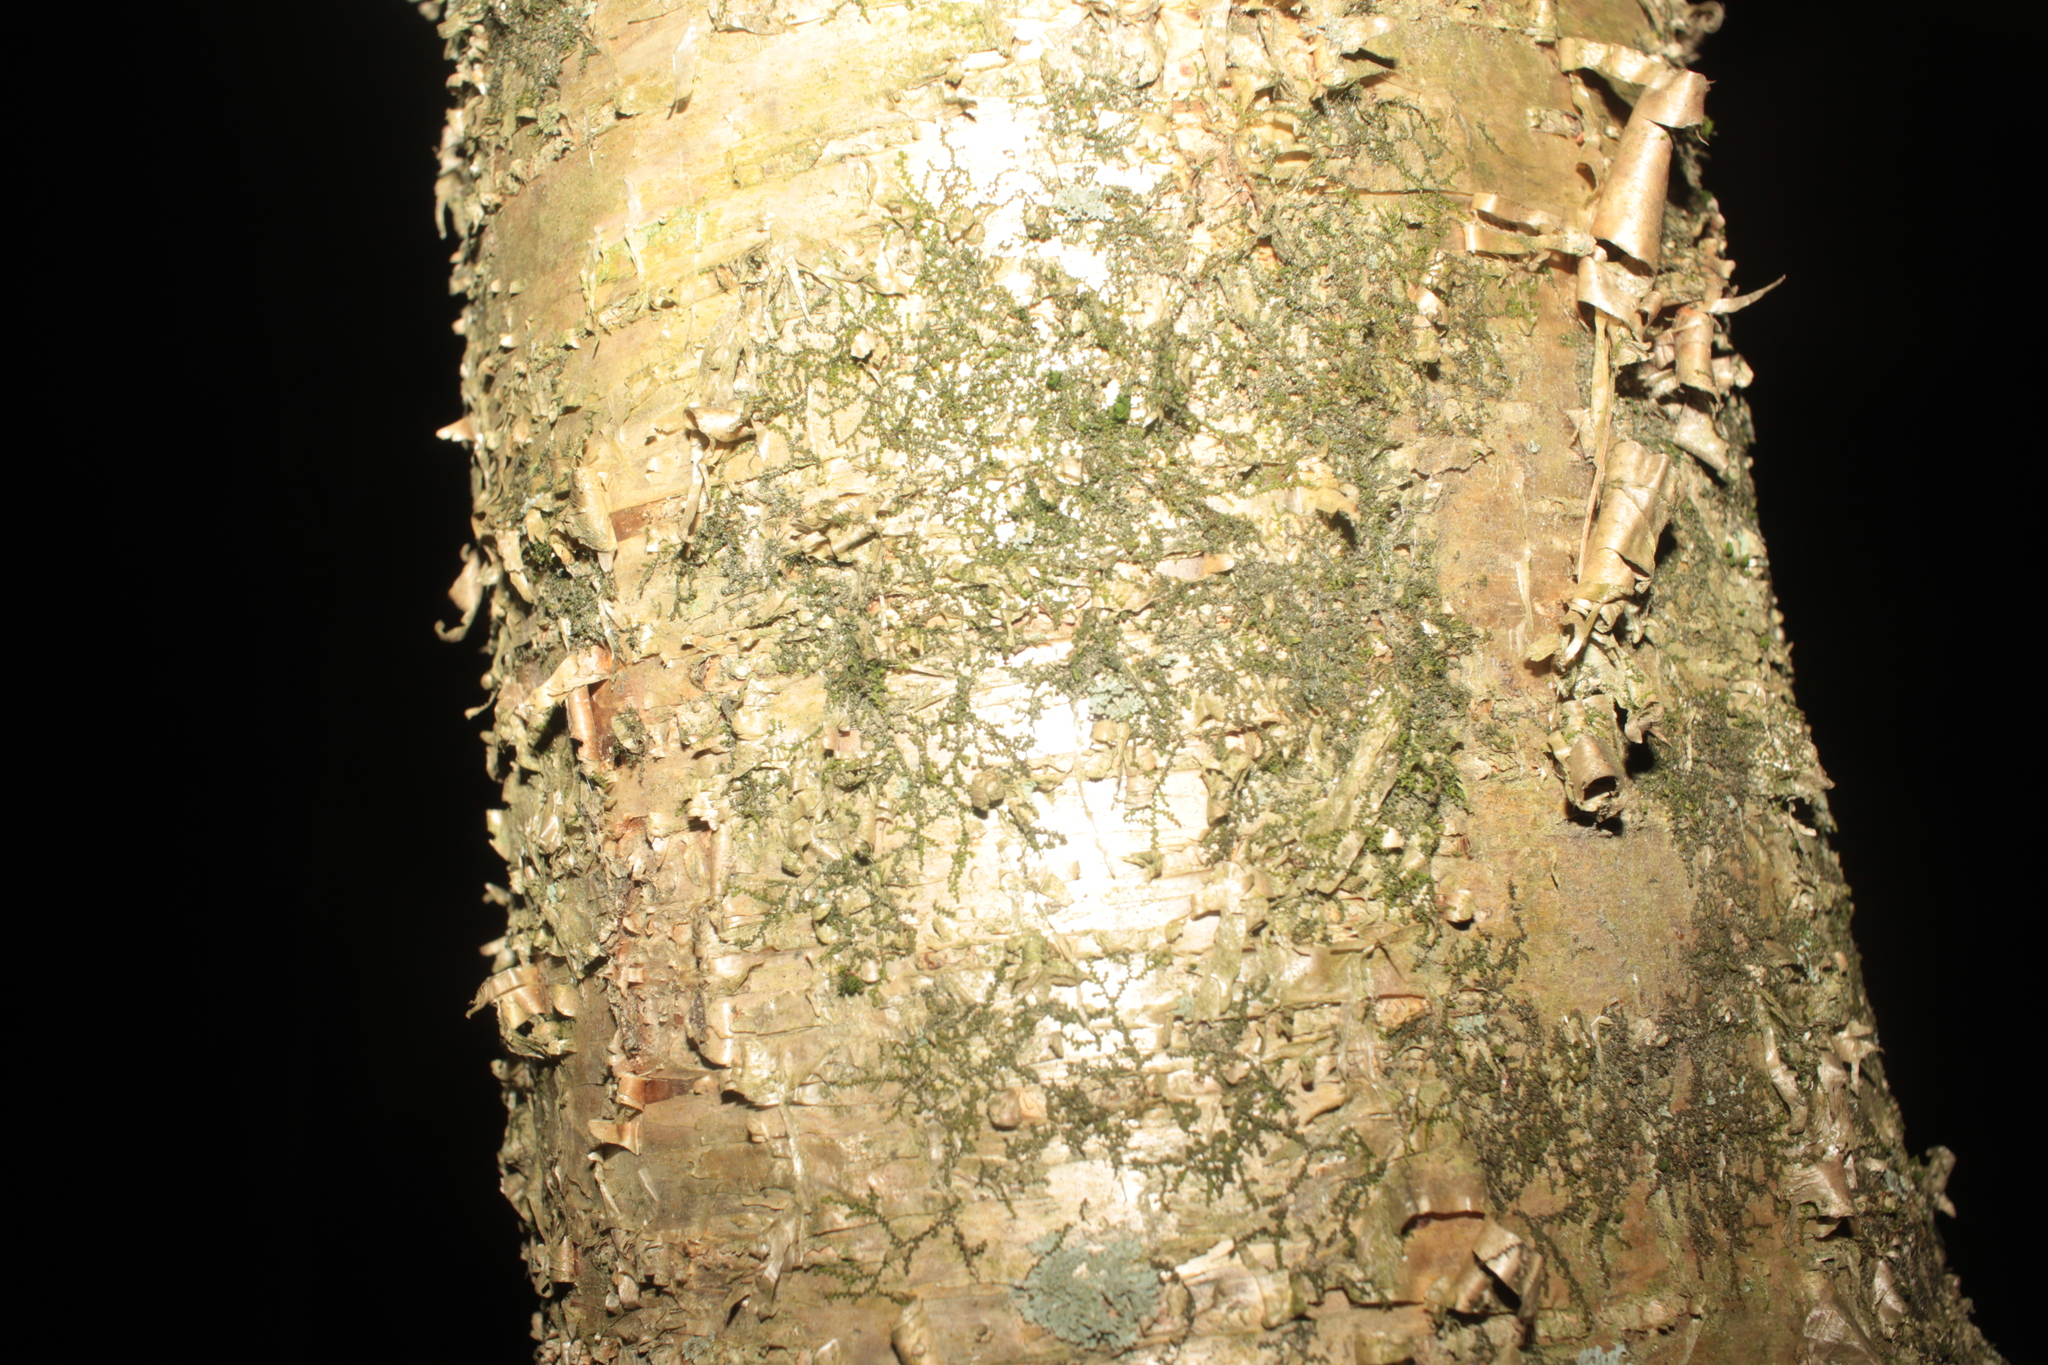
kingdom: Plantae
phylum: Tracheophyta
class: Magnoliopsida
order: Fagales
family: Betulaceae
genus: Betula
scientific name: Betula alleghaniensis
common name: Yellow birch
